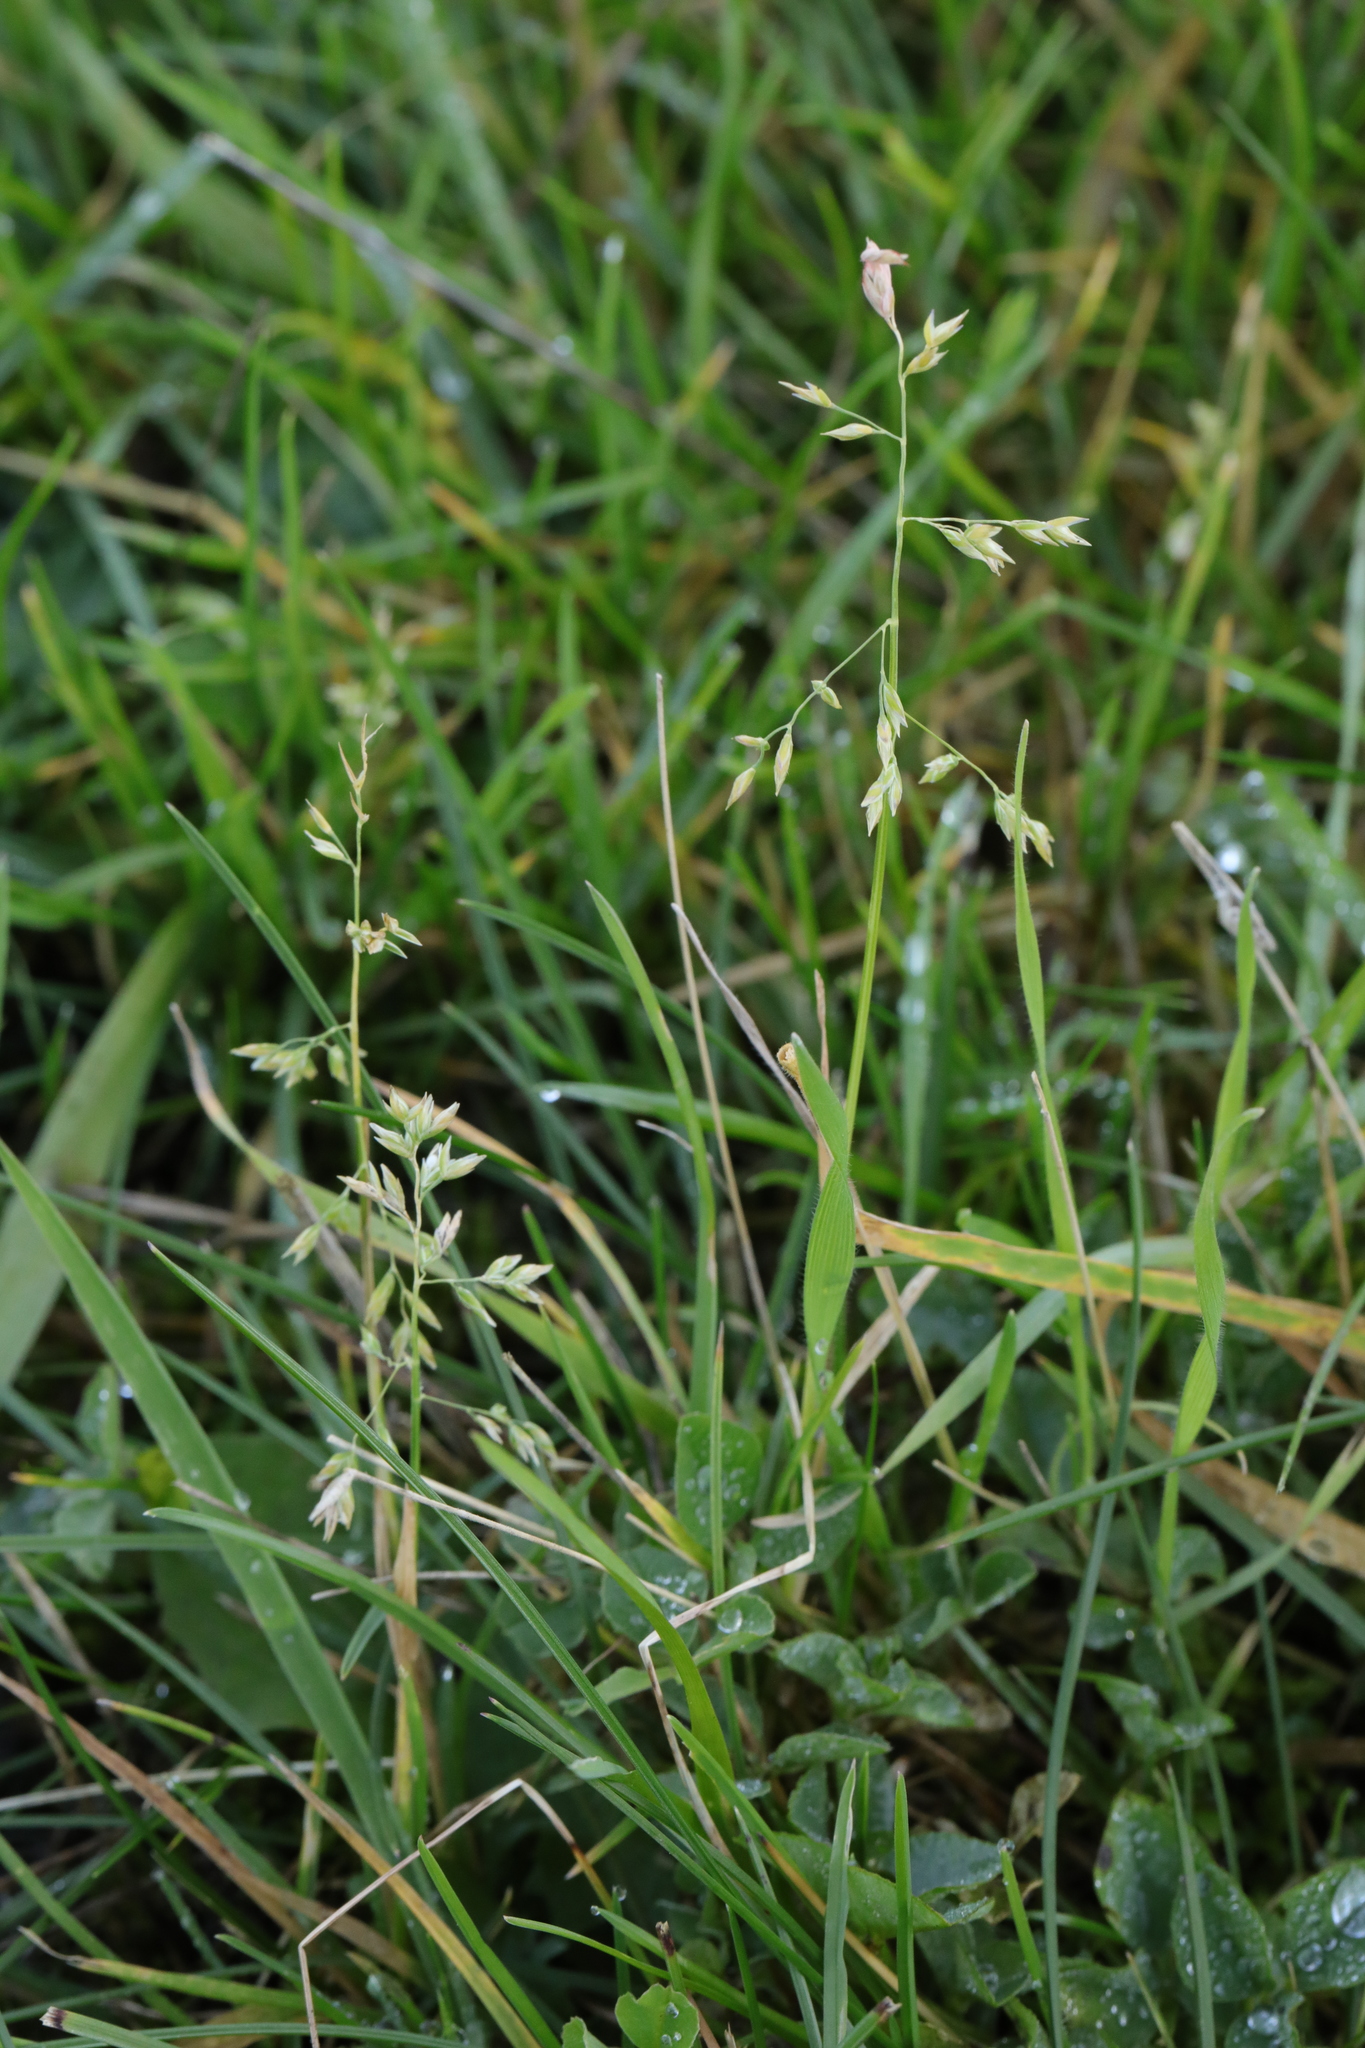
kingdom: Plantae
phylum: Tracheophyta
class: Liliopsida
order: Poales
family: Poaceae
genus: Poa
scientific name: Poa annua
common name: Annual bluegrass
